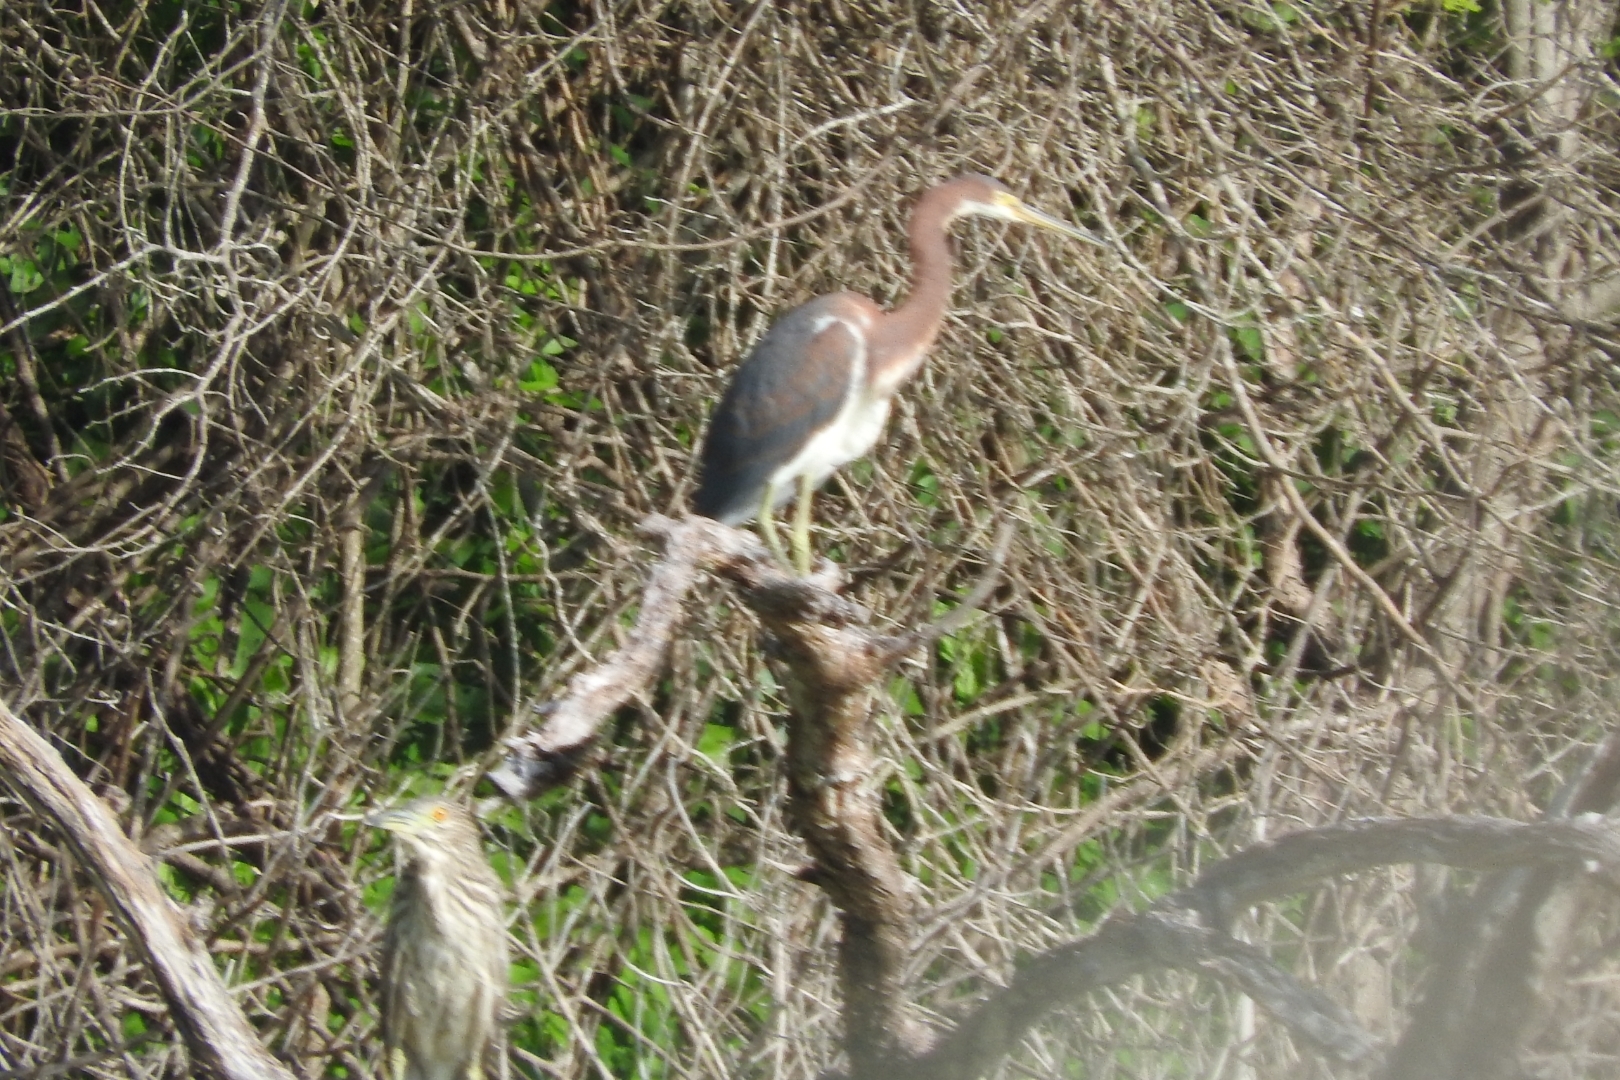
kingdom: Animalia
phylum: Chordata
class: Aves
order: Pelecaniformes
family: Ardeidae
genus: Egretta
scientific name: Egretta tricolor
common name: Tricolored heron
